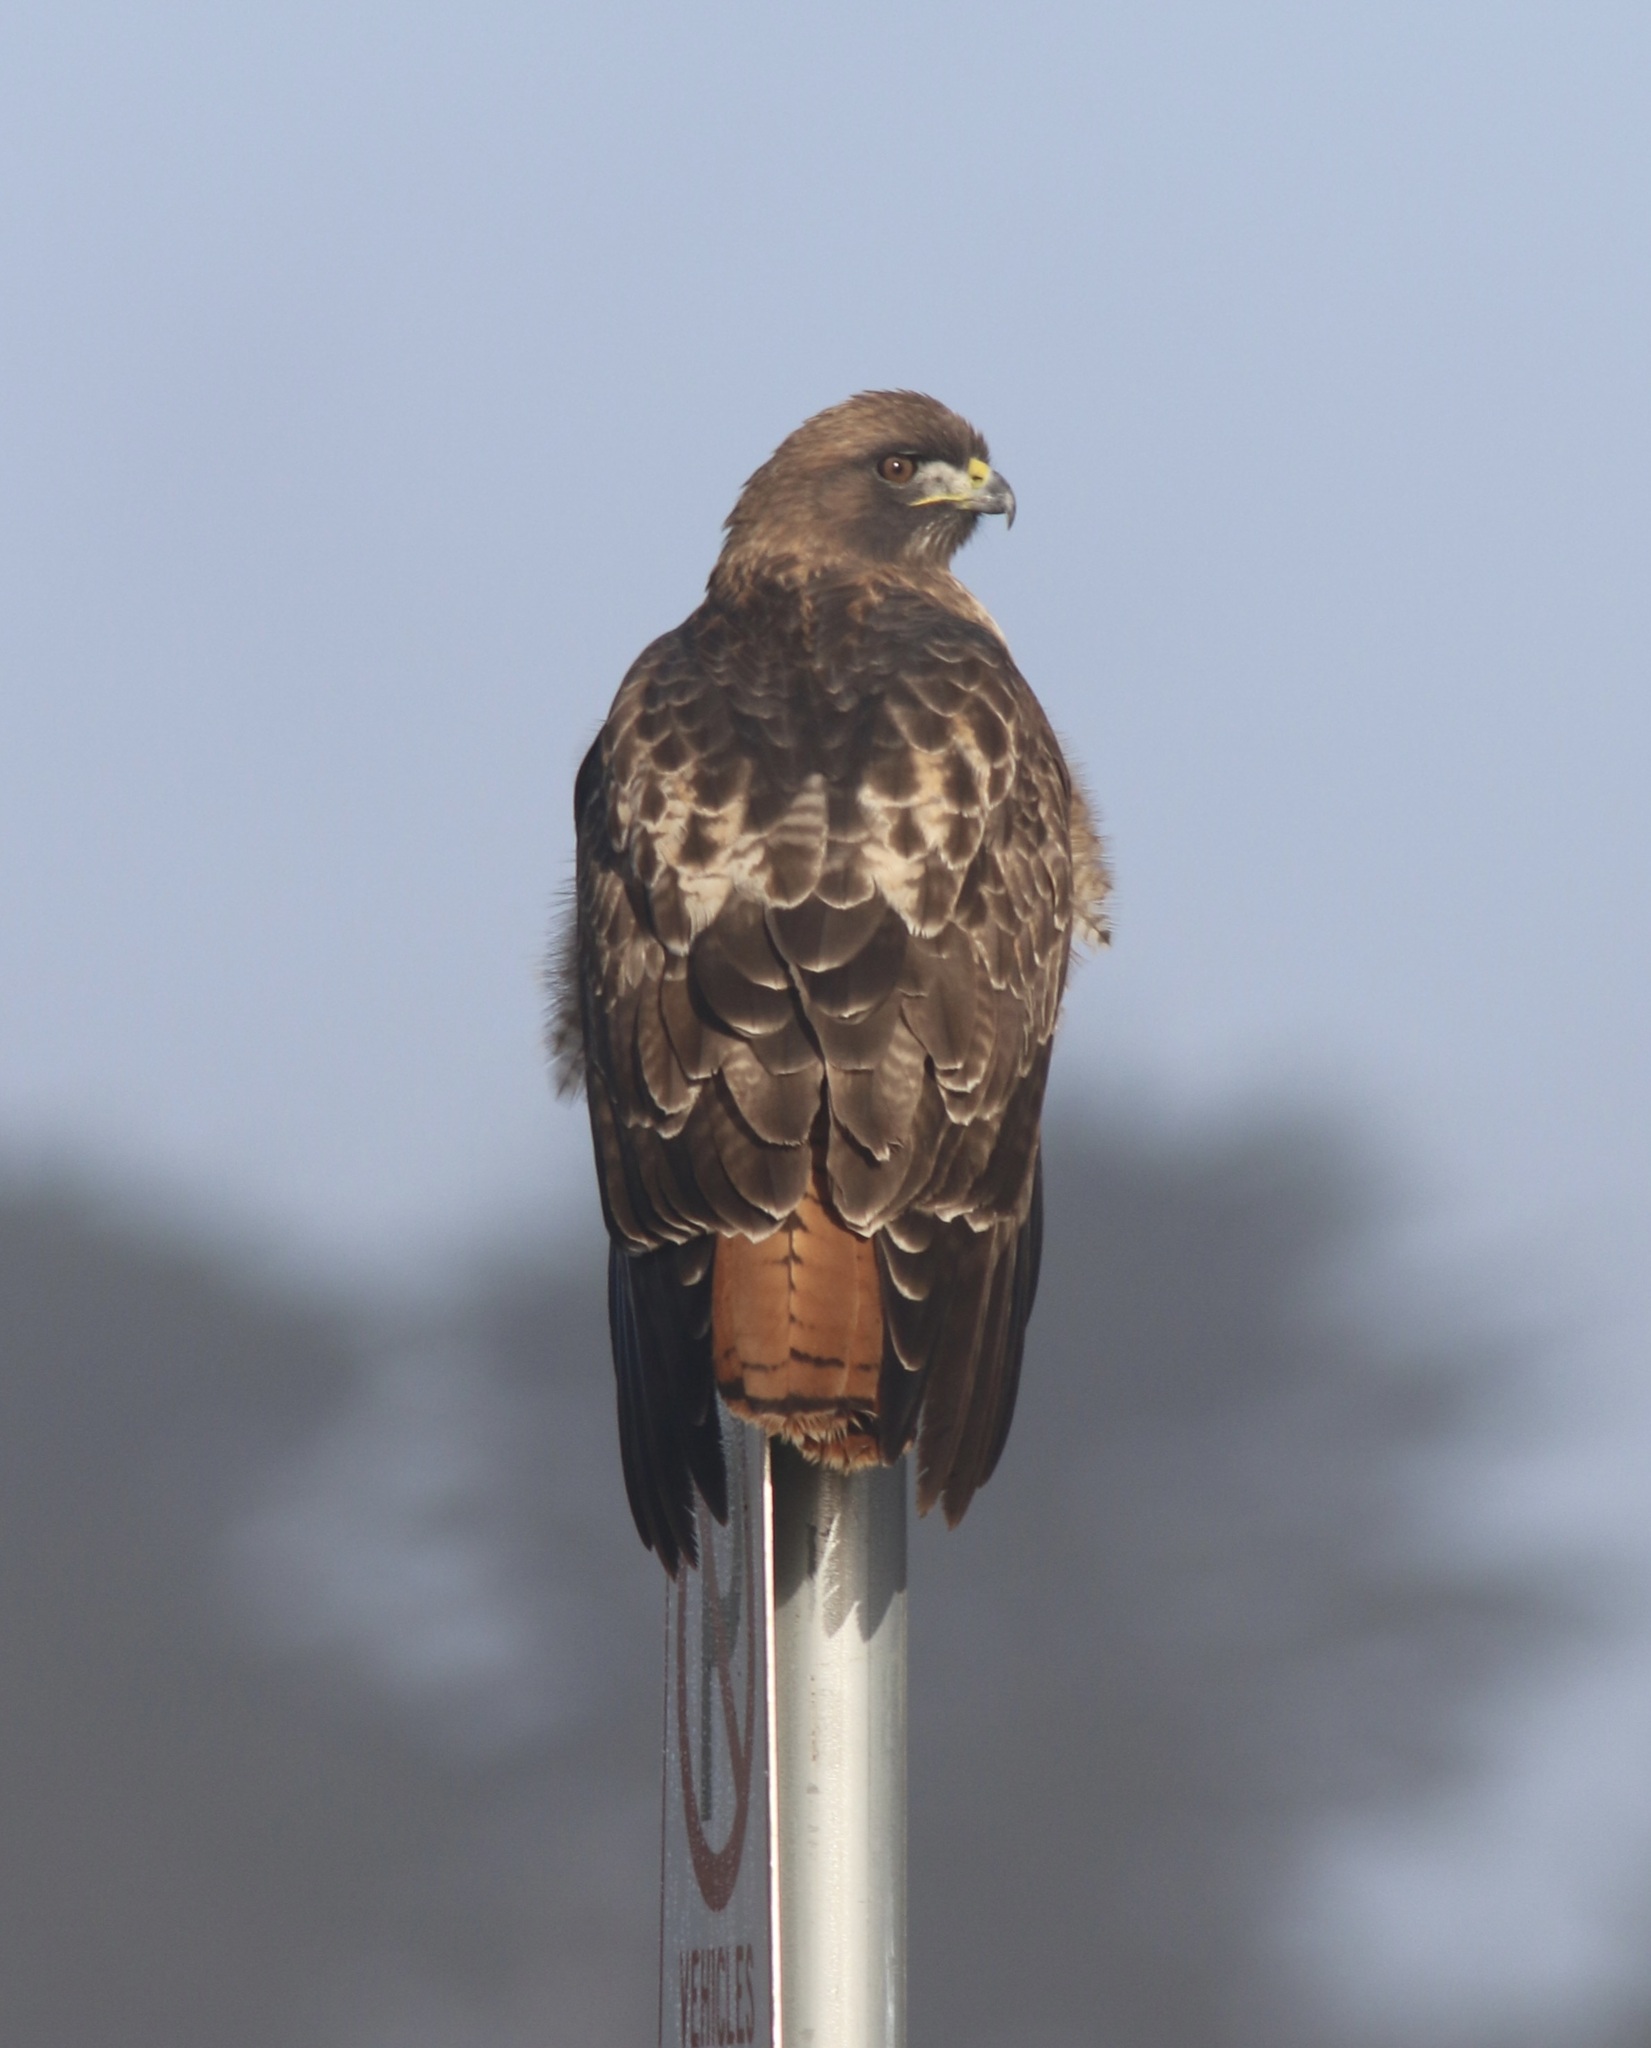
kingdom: Animalia
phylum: Chordata
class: Aves
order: Accipitriformes
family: Accipitridae
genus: Buteo
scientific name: Buteo jamaicensis
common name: Red-tailed hawk
